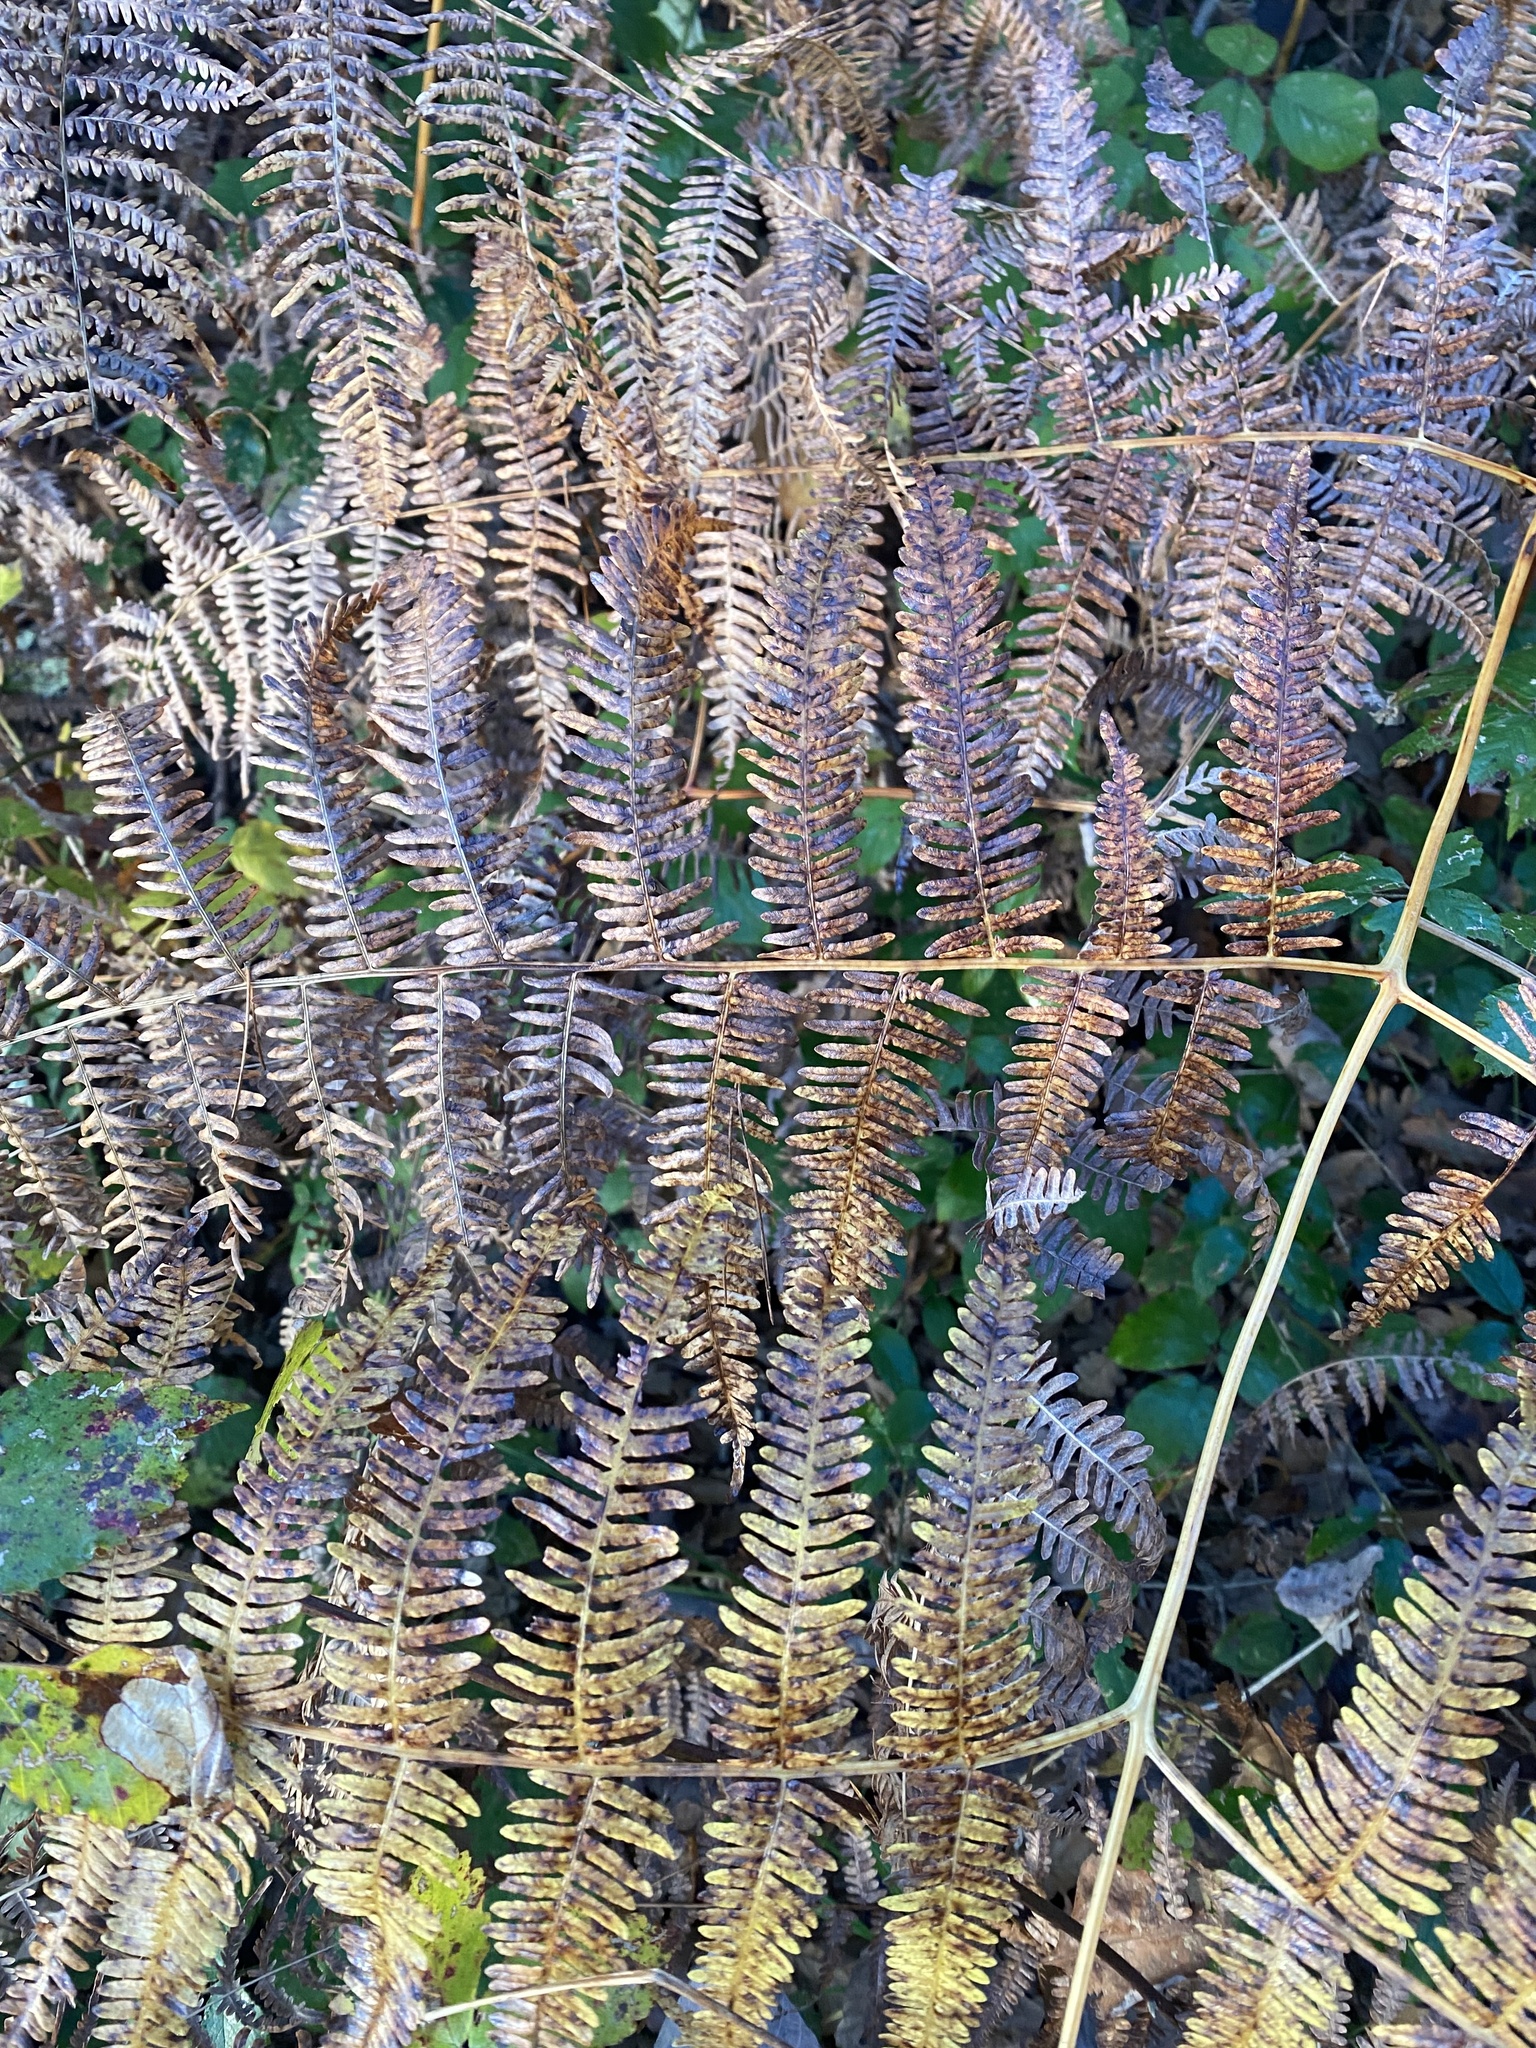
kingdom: Plantae
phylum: Tracheophyta
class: Polypodiopsida
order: Polypodiales
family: Dennstaedtiaceae
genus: Pteridium
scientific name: Pteridium tauricum
